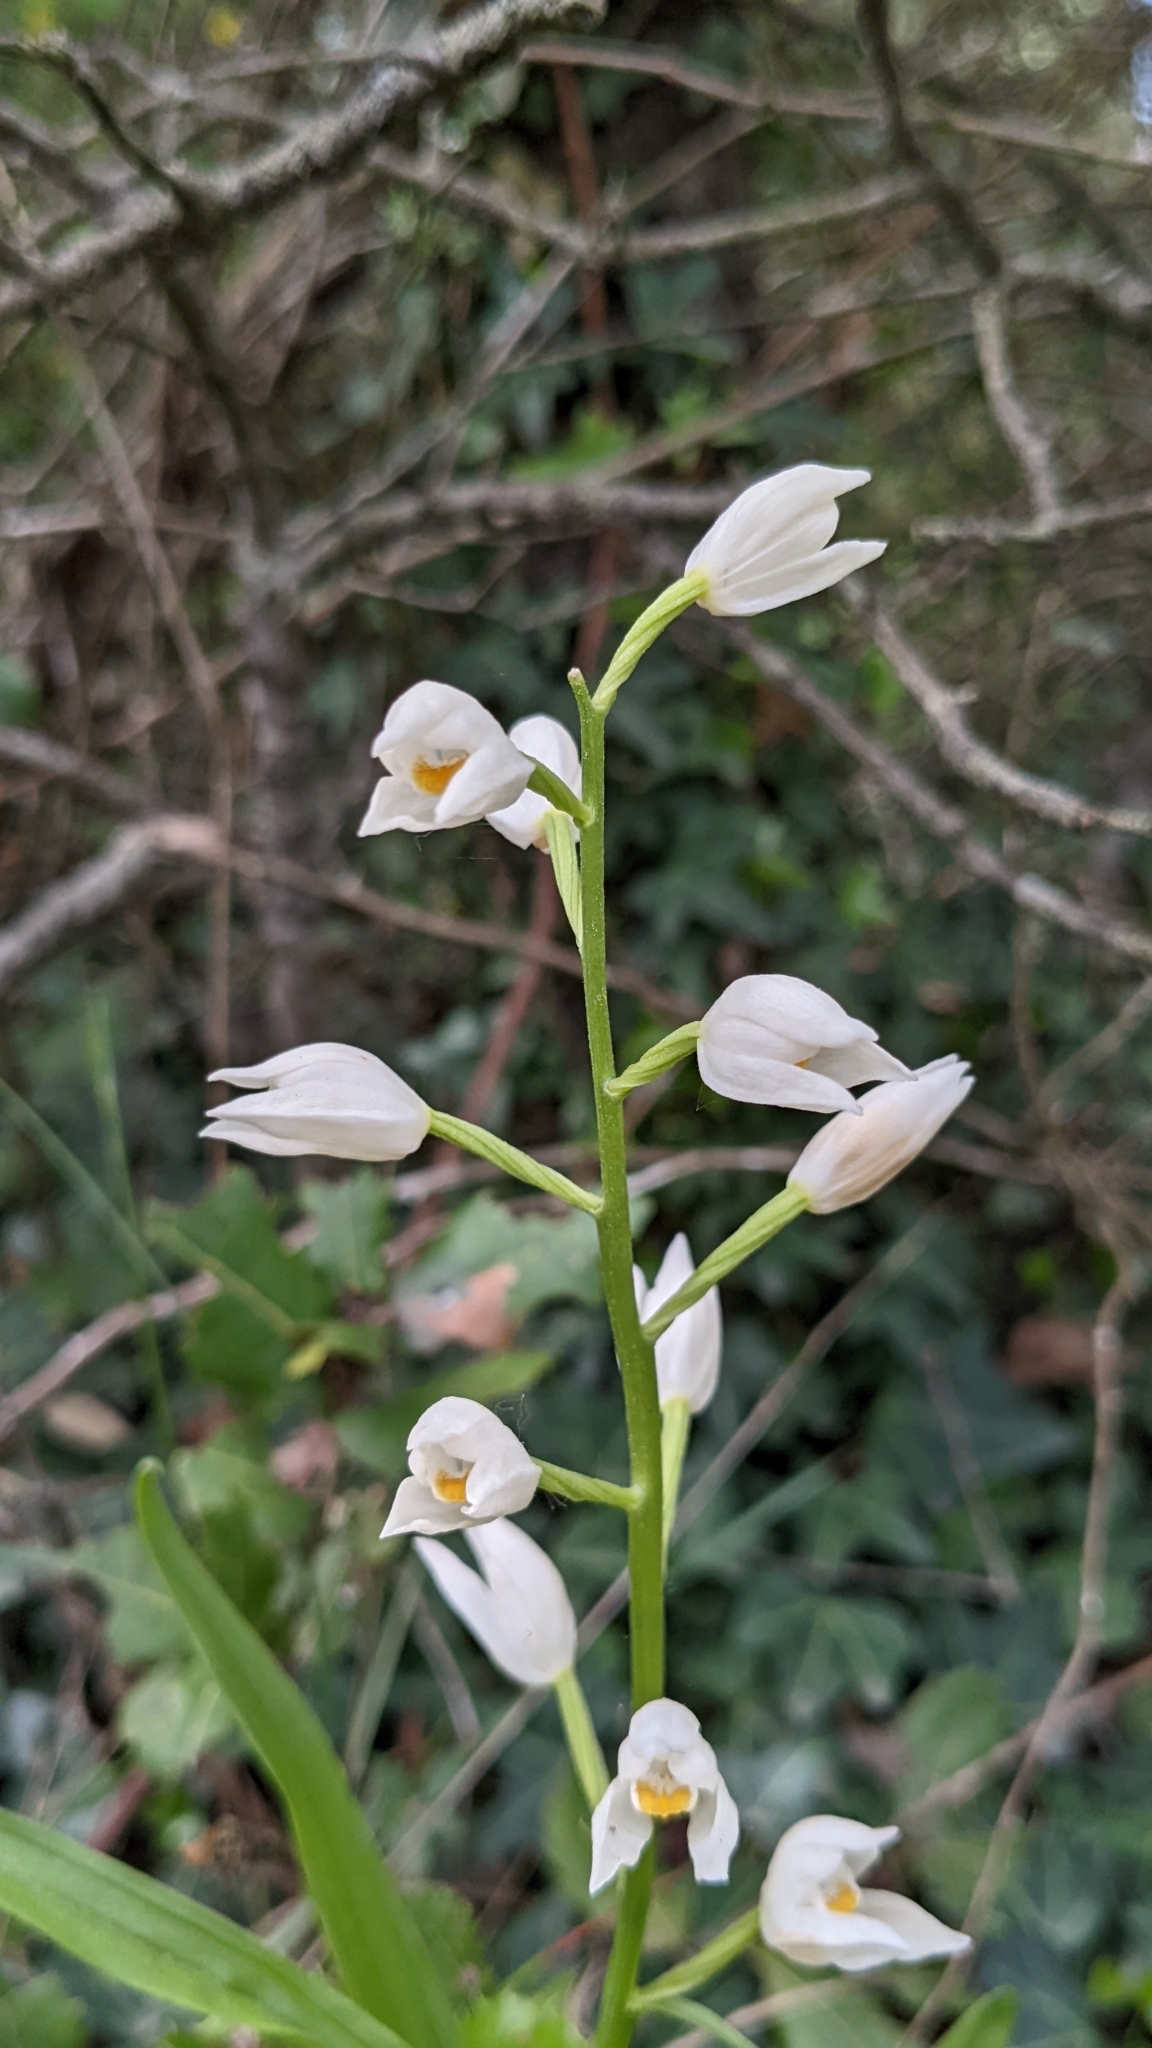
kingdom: Plantae
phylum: Tracheophyta
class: Liliopsida
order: Asparagales
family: Orchidaceae
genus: Cephalanthera
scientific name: Cephalanthera longifolia
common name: Narrow-leaved helleborine
